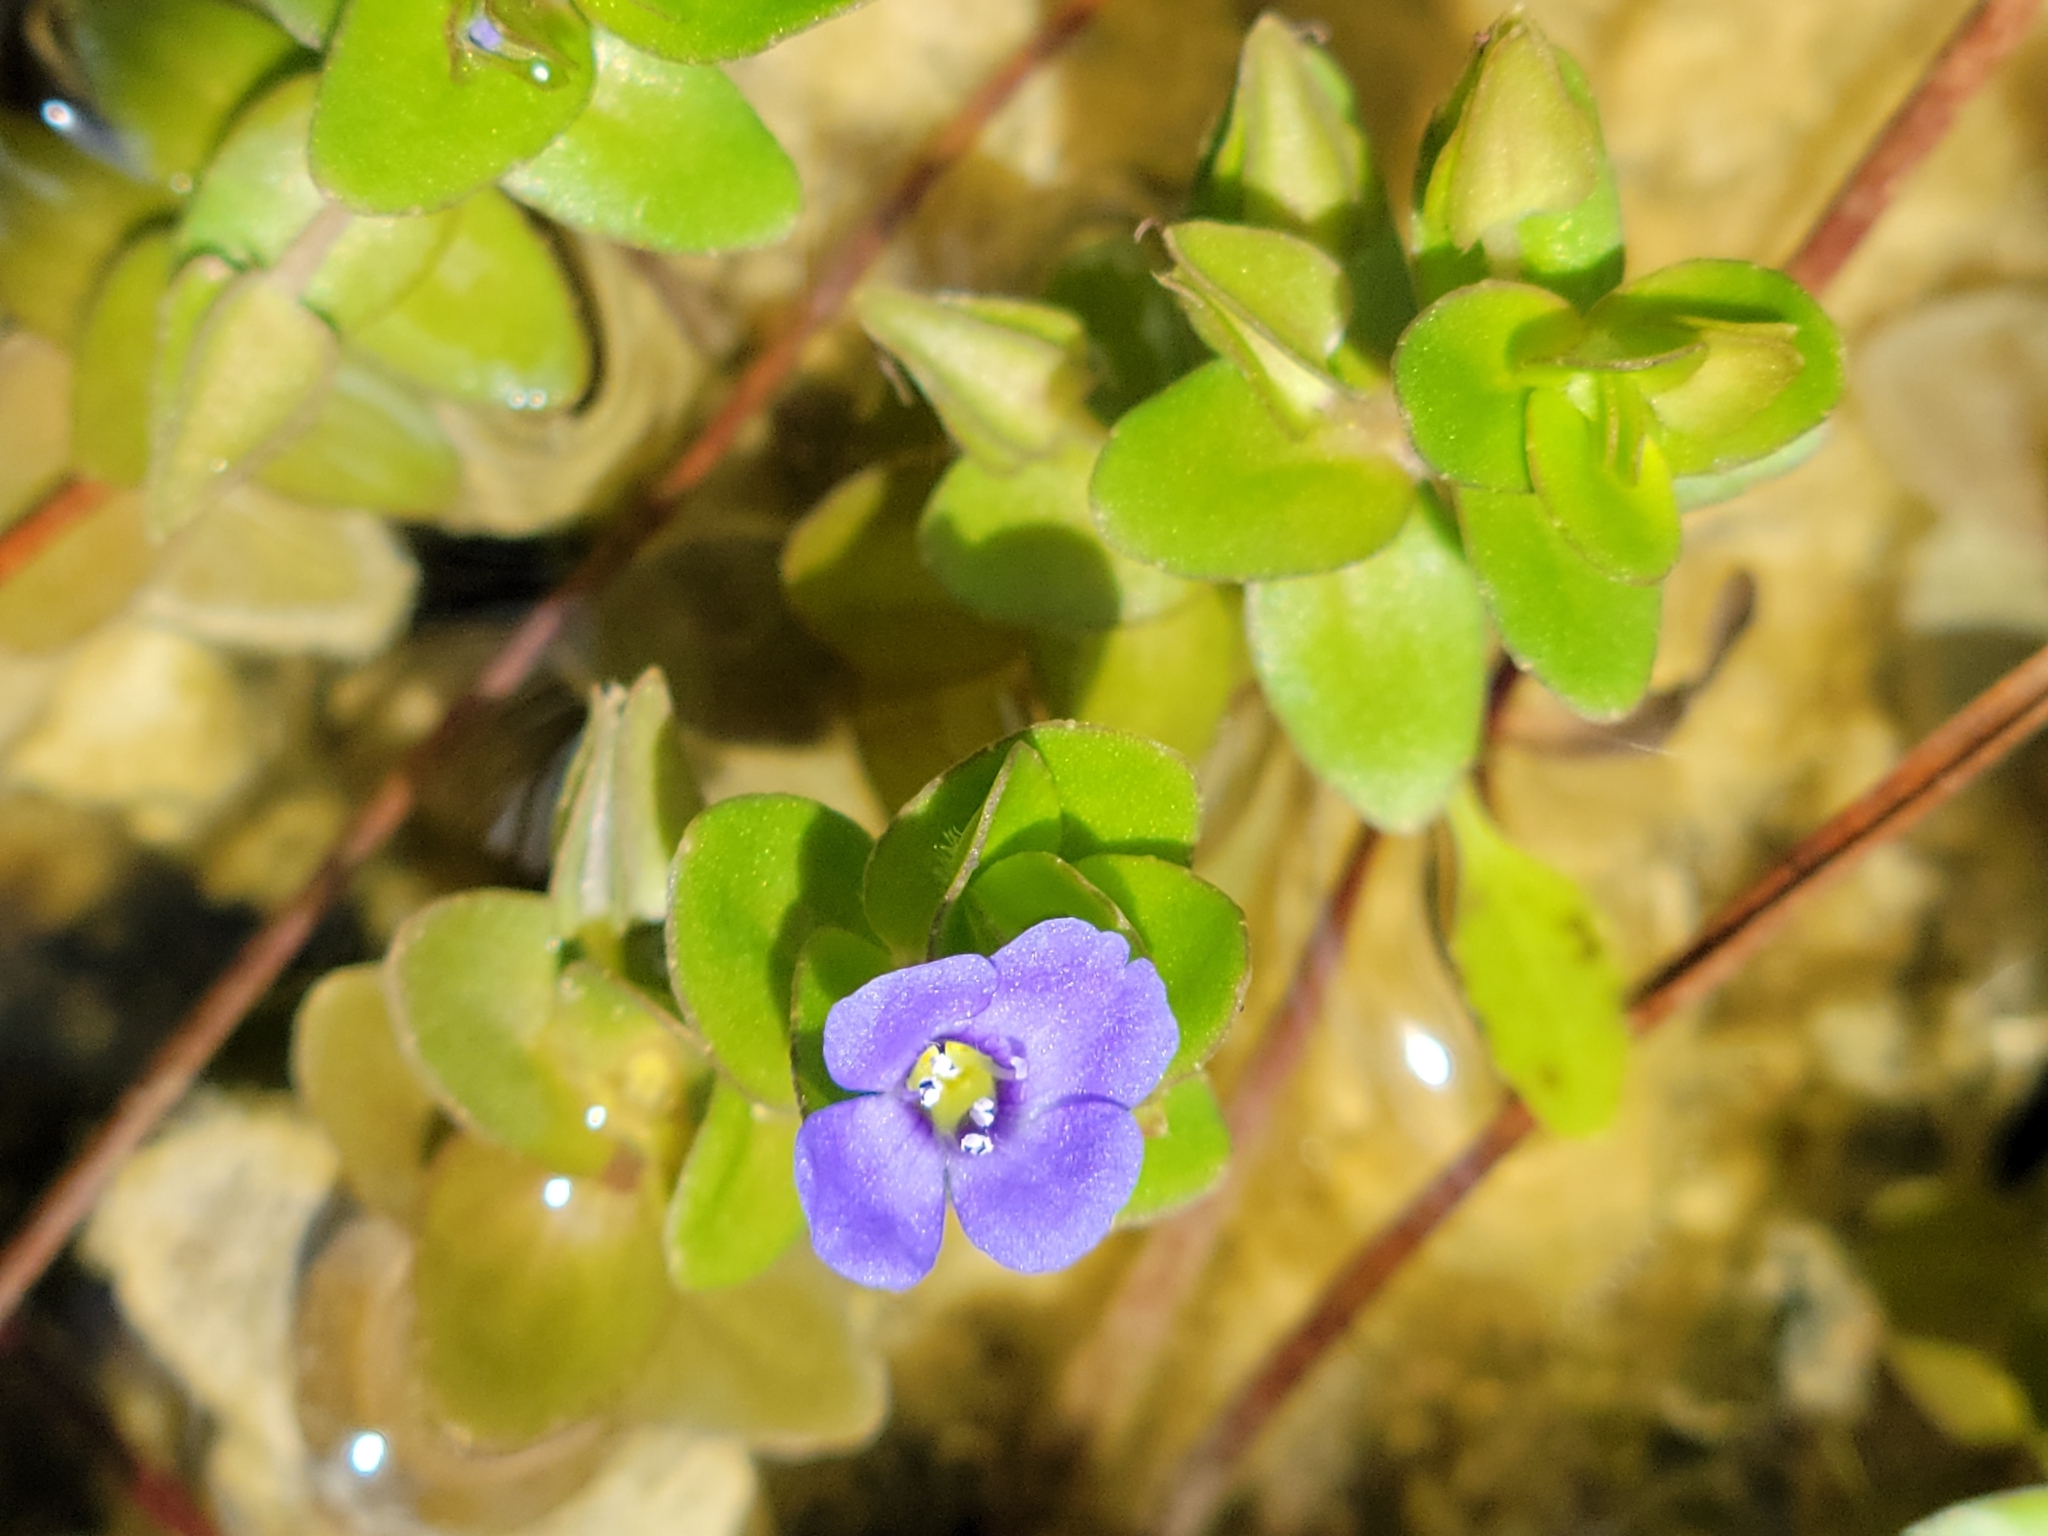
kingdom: Plantae
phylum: Tracheophyta
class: Magnoliopsida
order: Lamiales
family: Plantaginaceae
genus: Bacopa
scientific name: Bacopa caroliniana
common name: Lemon bacopa
